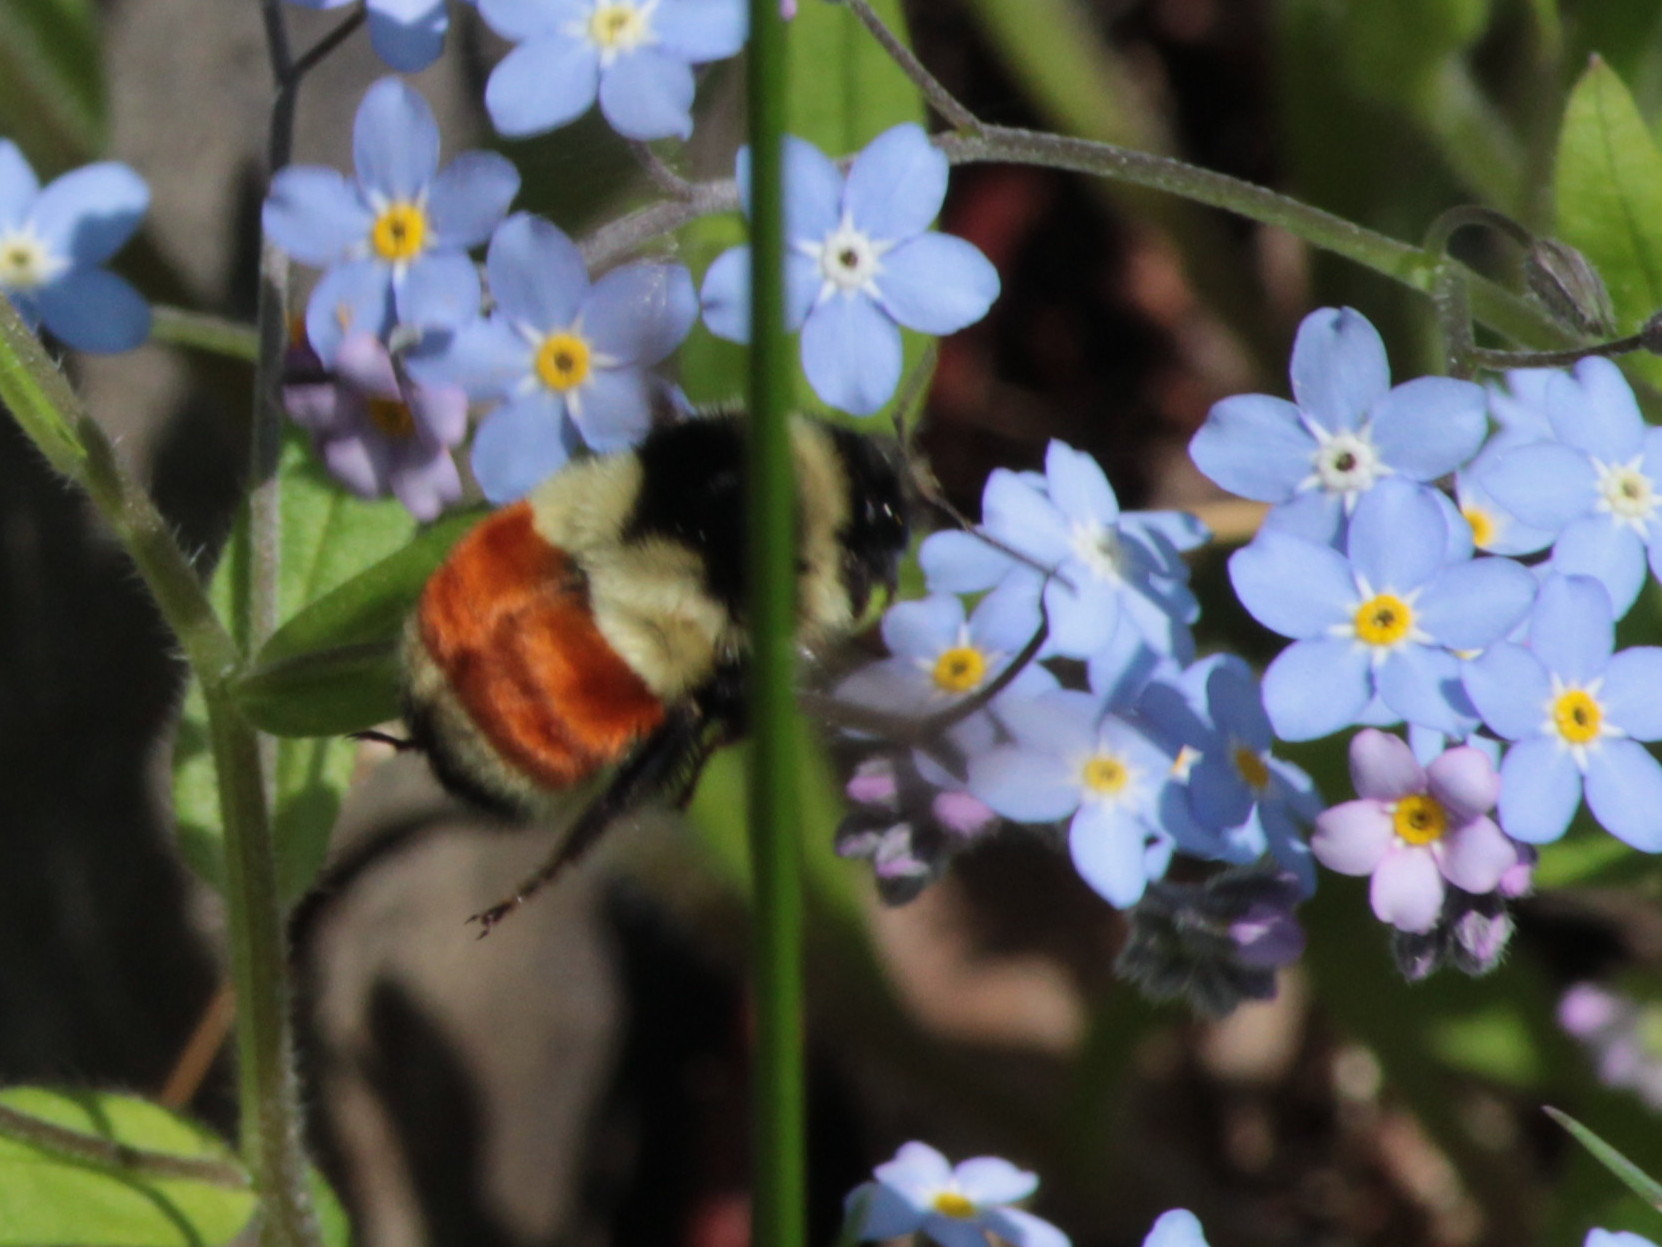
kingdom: Animalia
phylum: Arthropoda
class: Insecta
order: Hymenoptera
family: Apidae
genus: Bombus
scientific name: Bombus ternarius
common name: Tri-colored bumble bee
